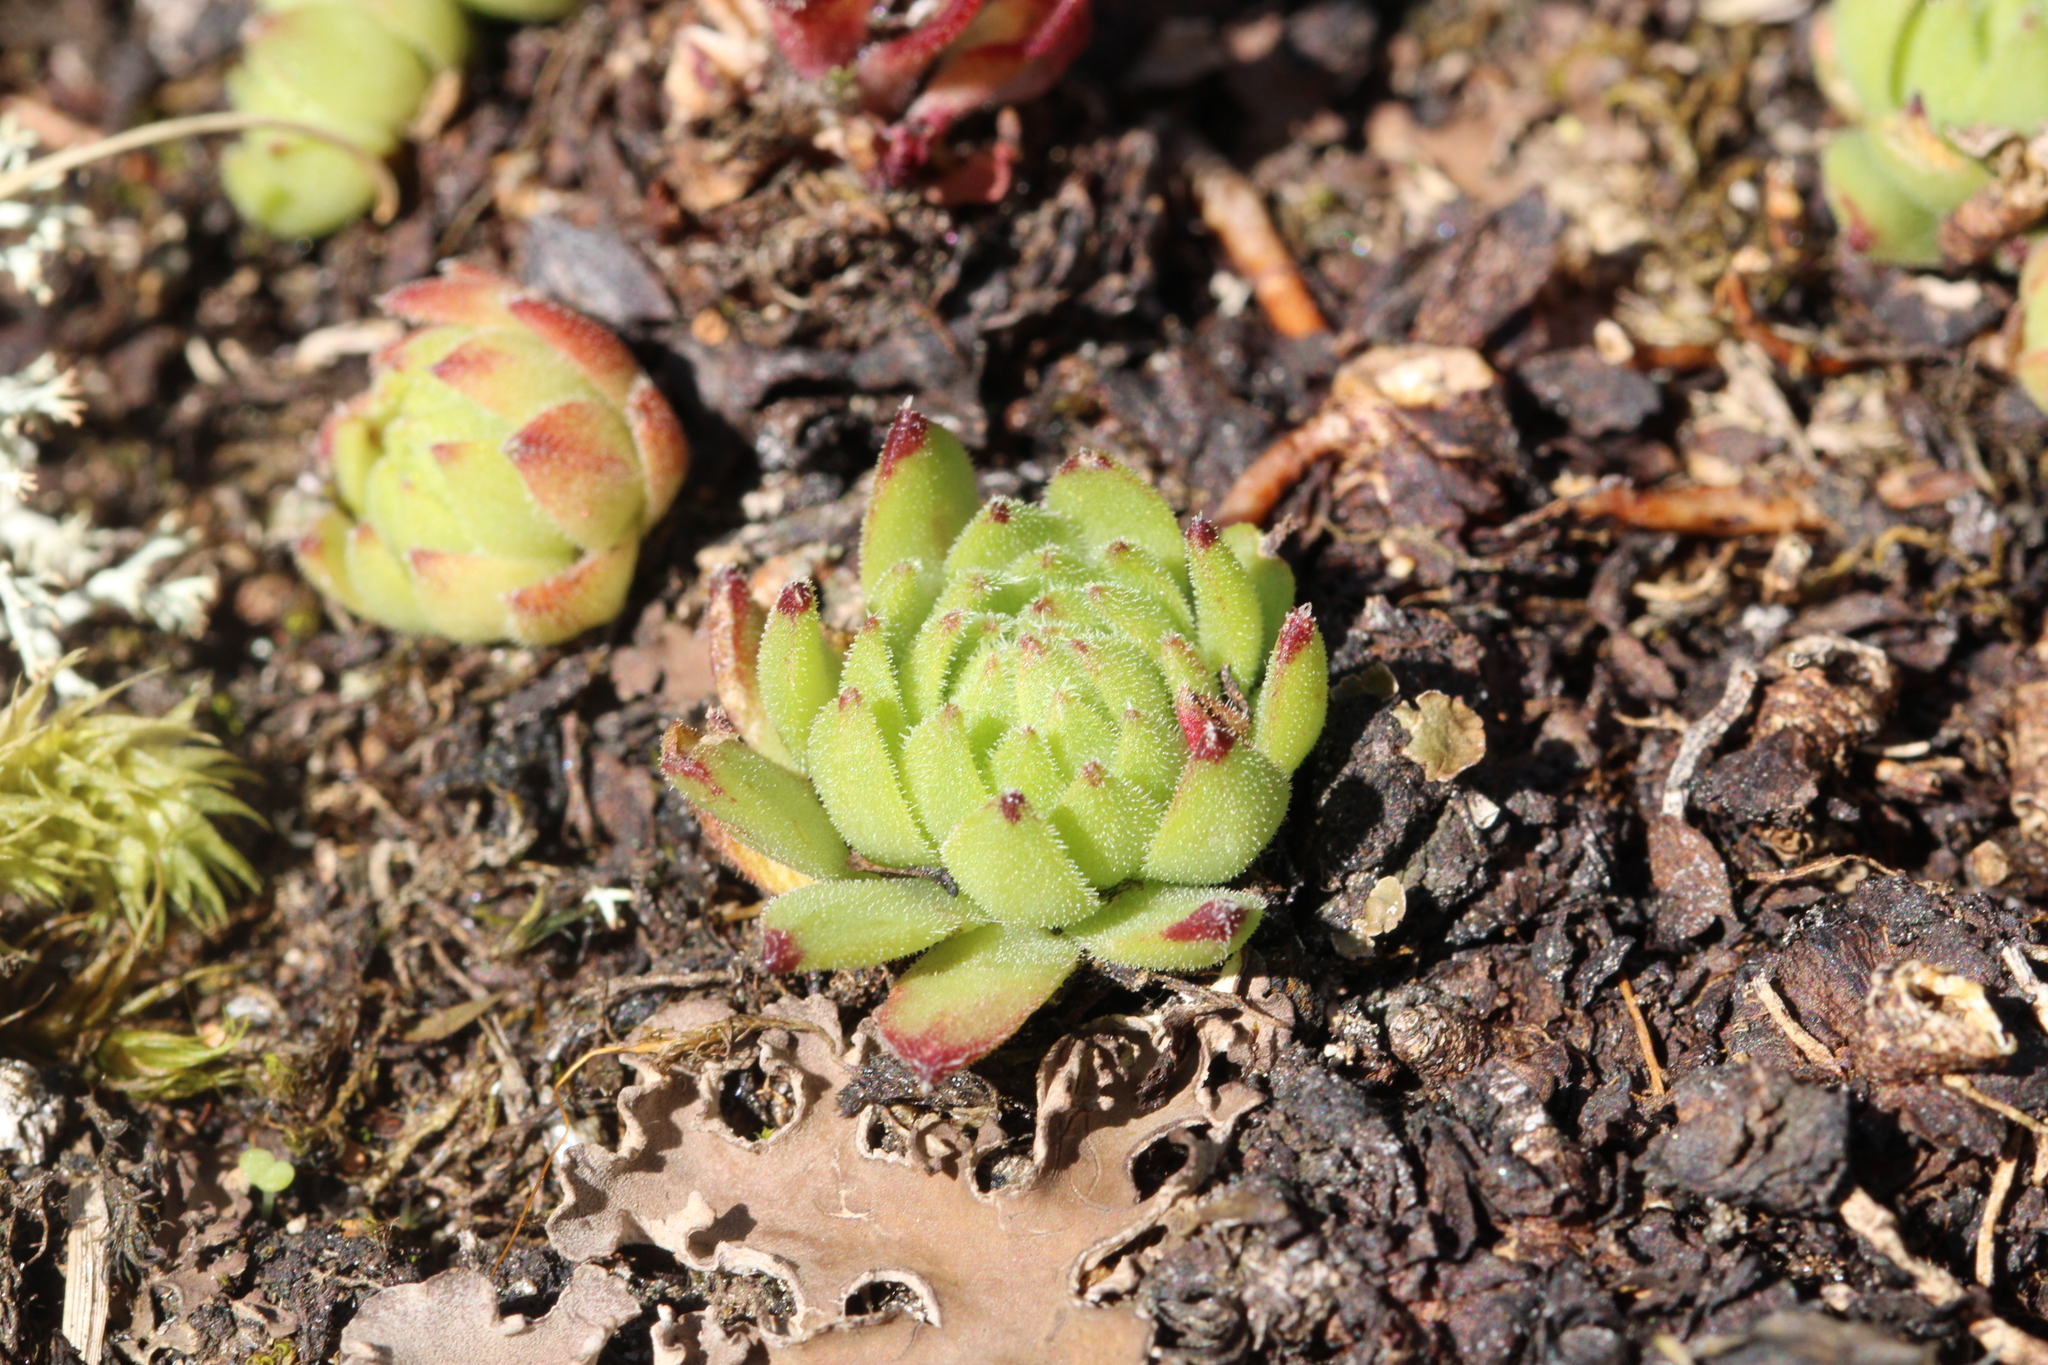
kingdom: Plantae
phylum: Tracheophyta
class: Magnoliopsida
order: Saxifragales
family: Crassulaceae
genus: Sempervivum
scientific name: Sempervivum montanum
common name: Mountain house-leek
